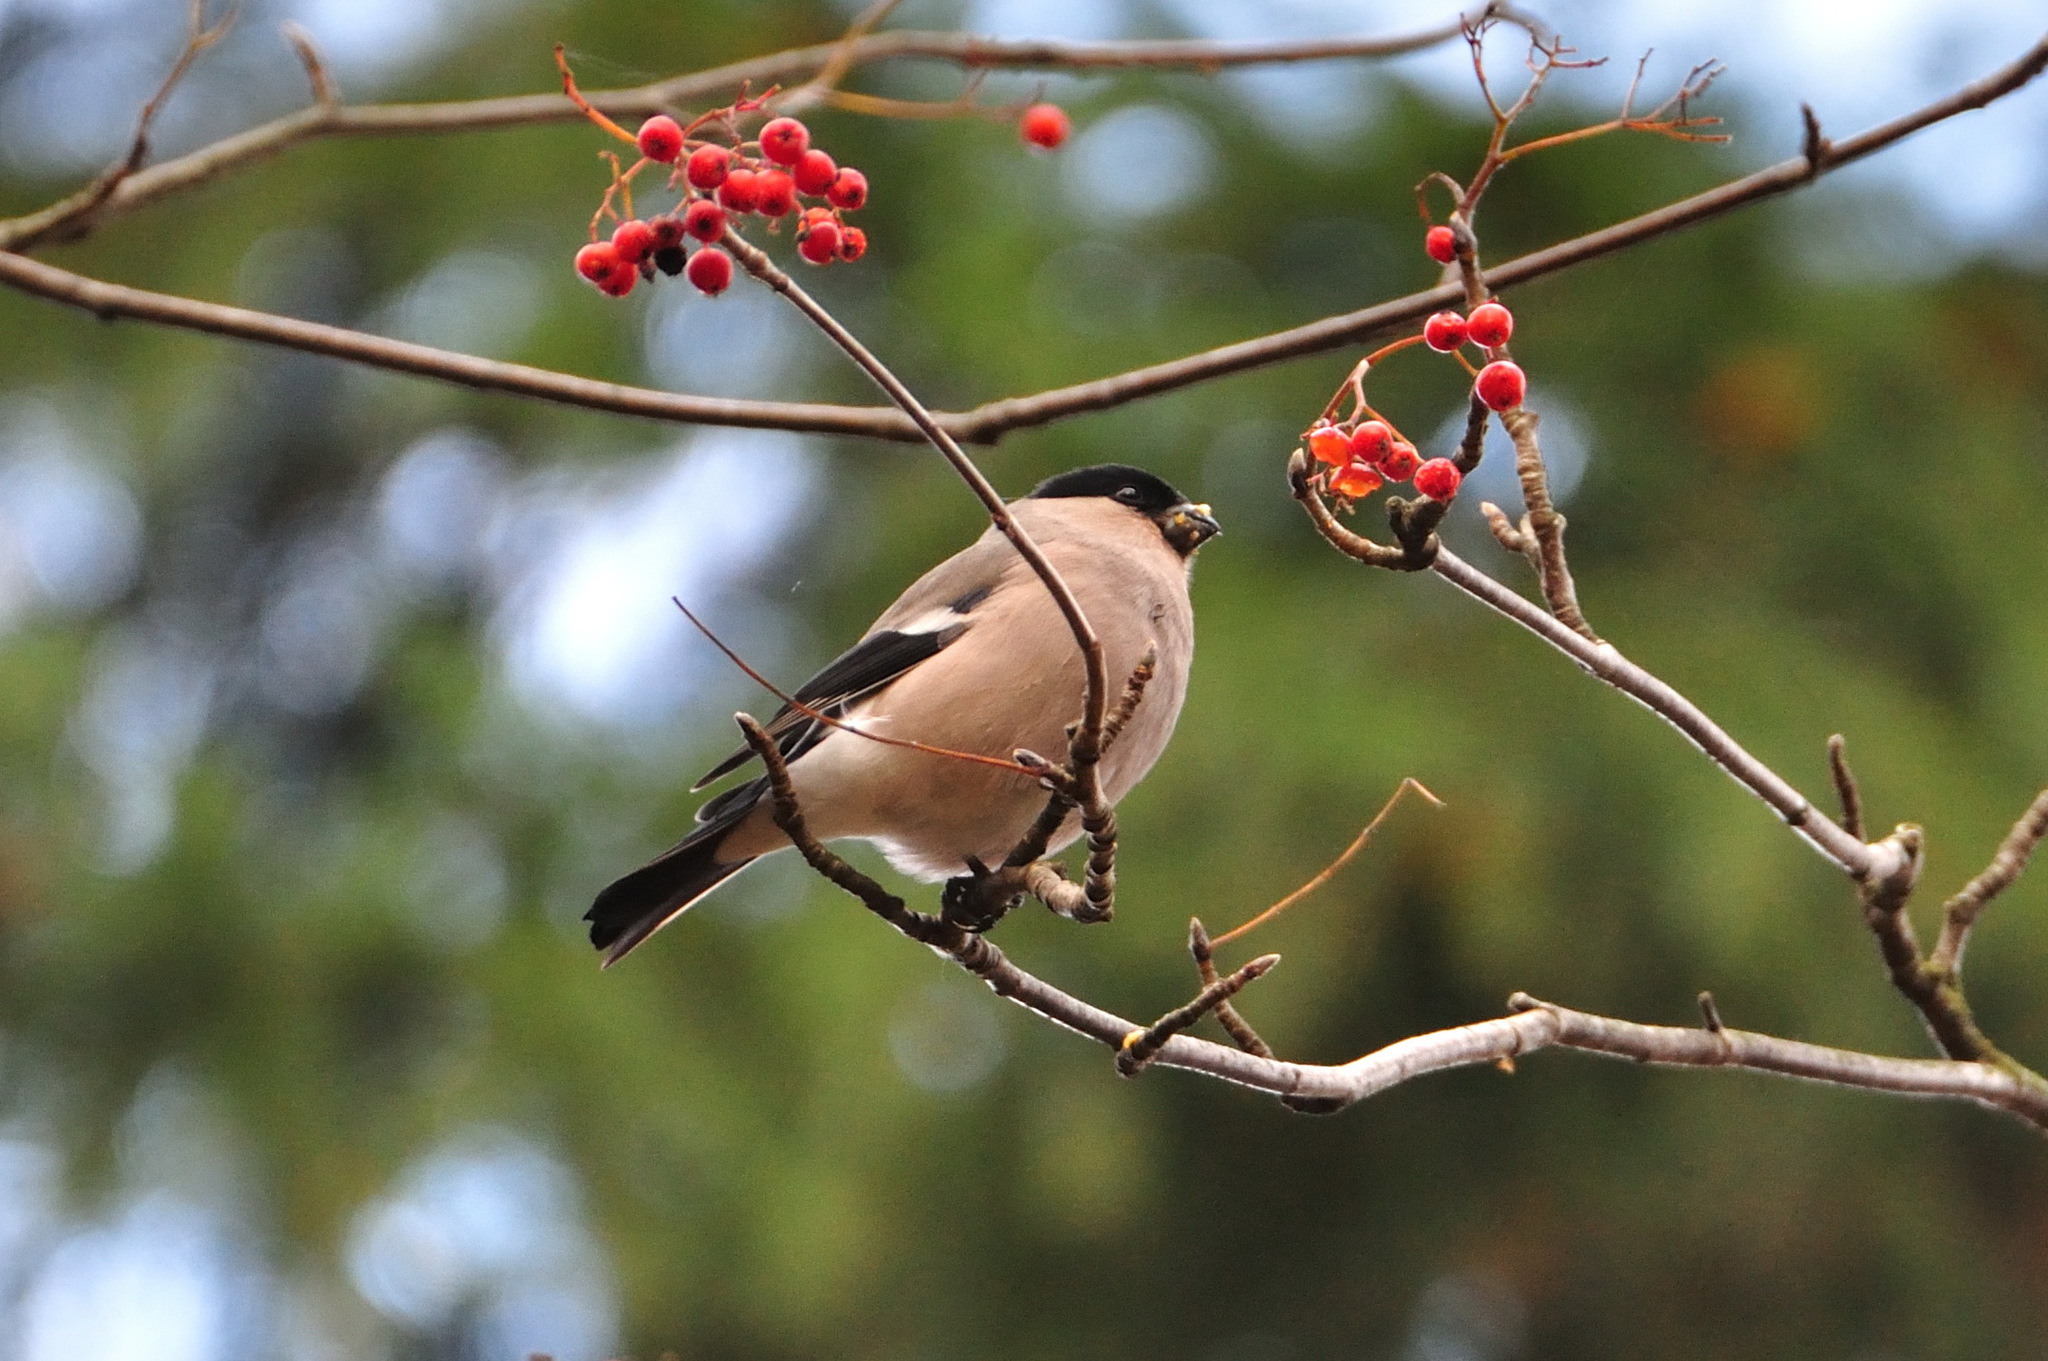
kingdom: Animalia
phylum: Chordata
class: Aves
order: Passeriformes
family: Fringillidae
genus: Pyrrhula
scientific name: Pyrrhula pyrrhula
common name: Eurasian bullfinch
